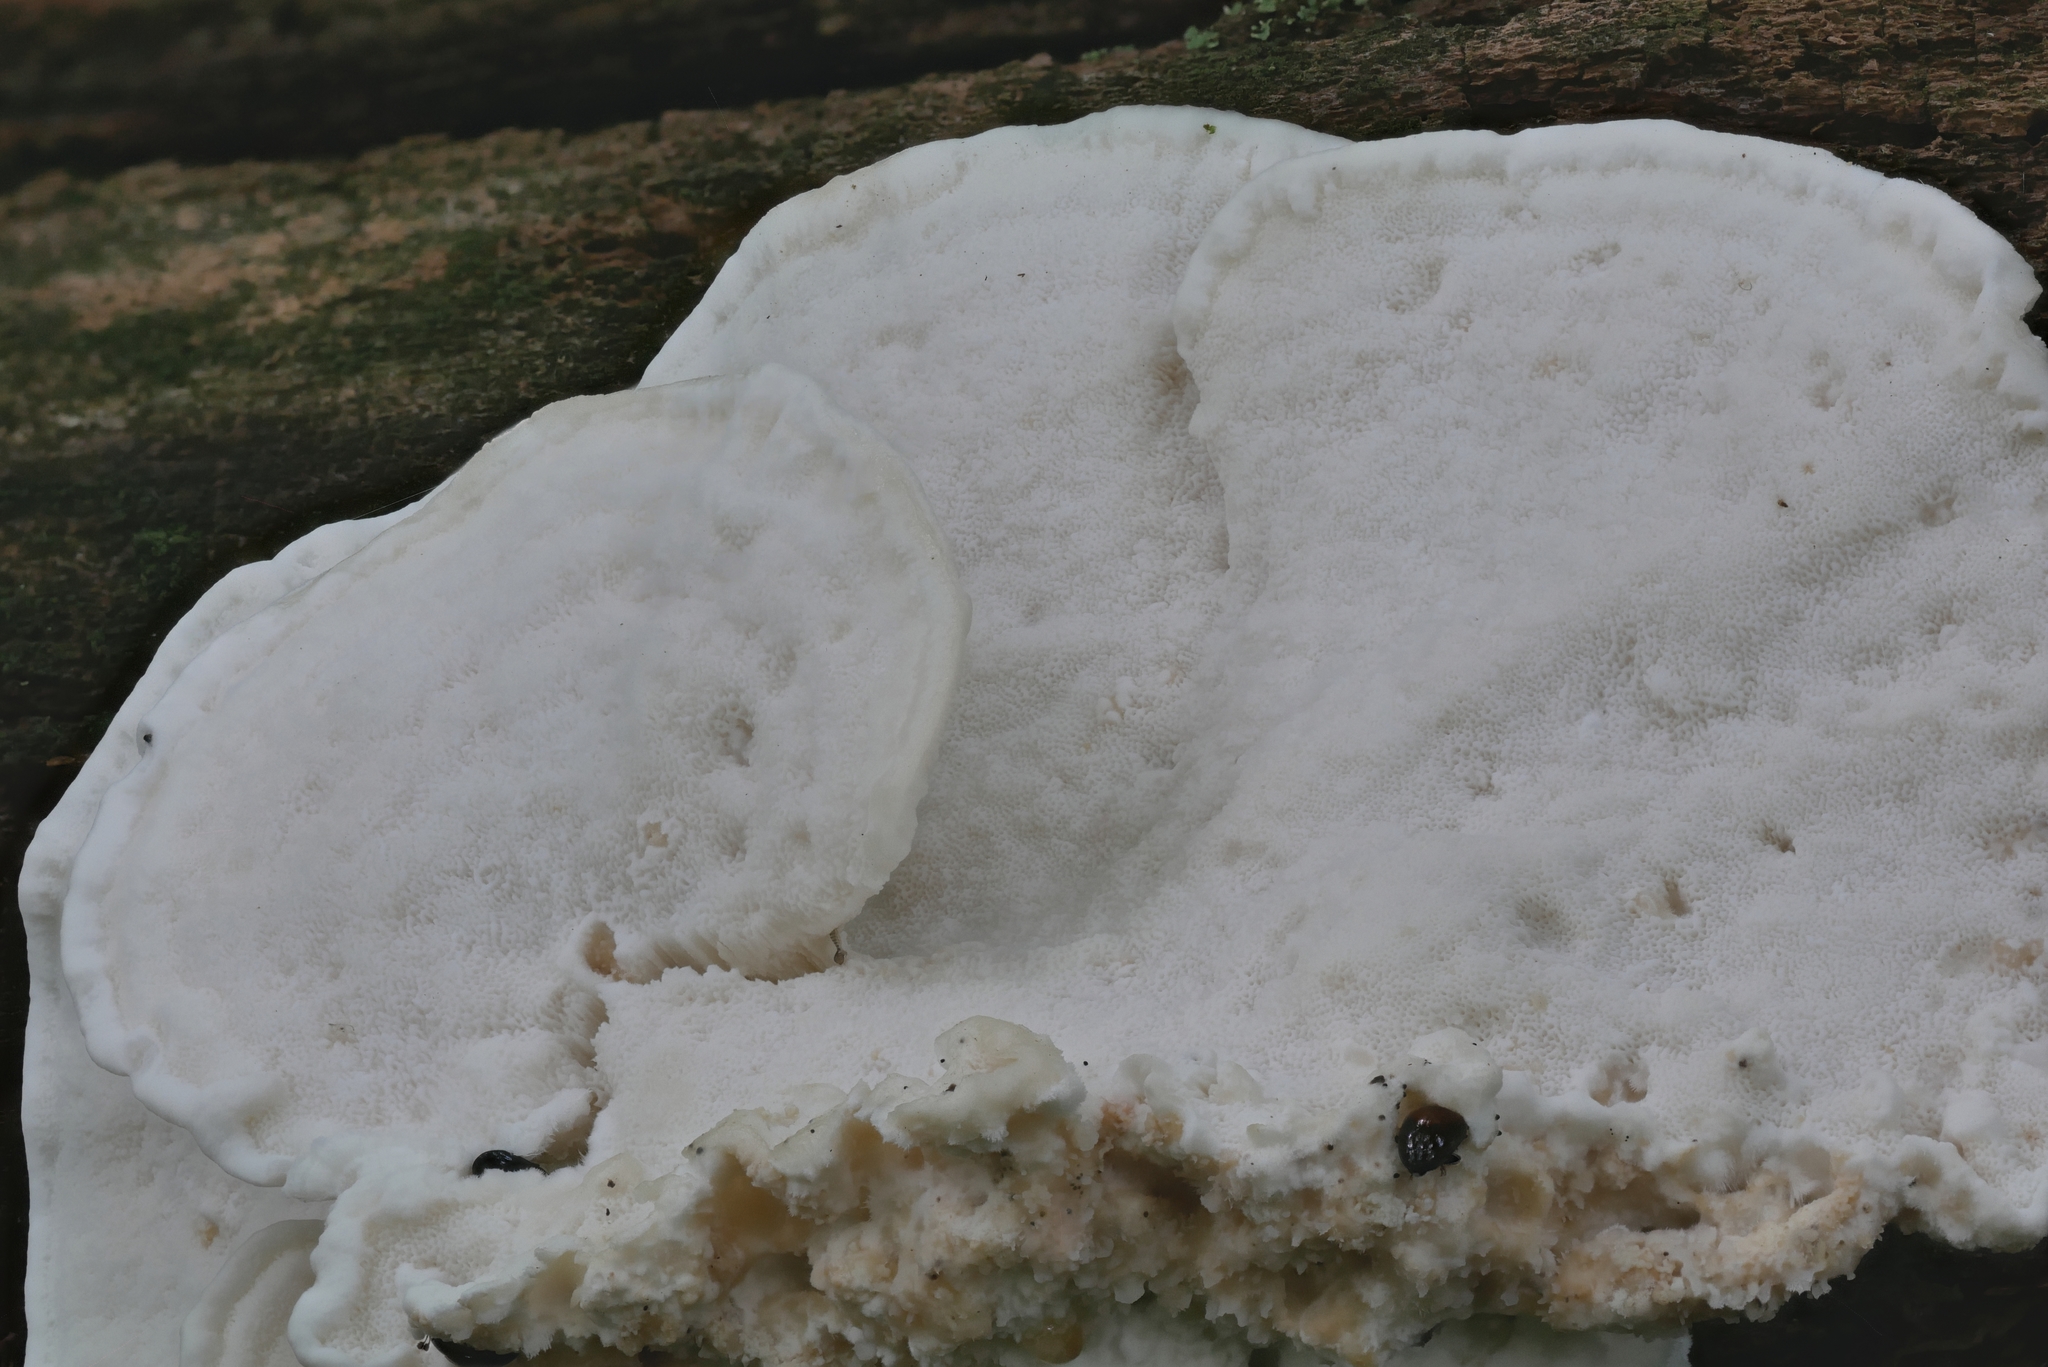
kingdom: Fungi
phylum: Basidiomycota
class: Agaricomycetes
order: Polyporales
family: Incrustoporiaceae
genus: Tyromyces
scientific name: Tyromyces galactinus
